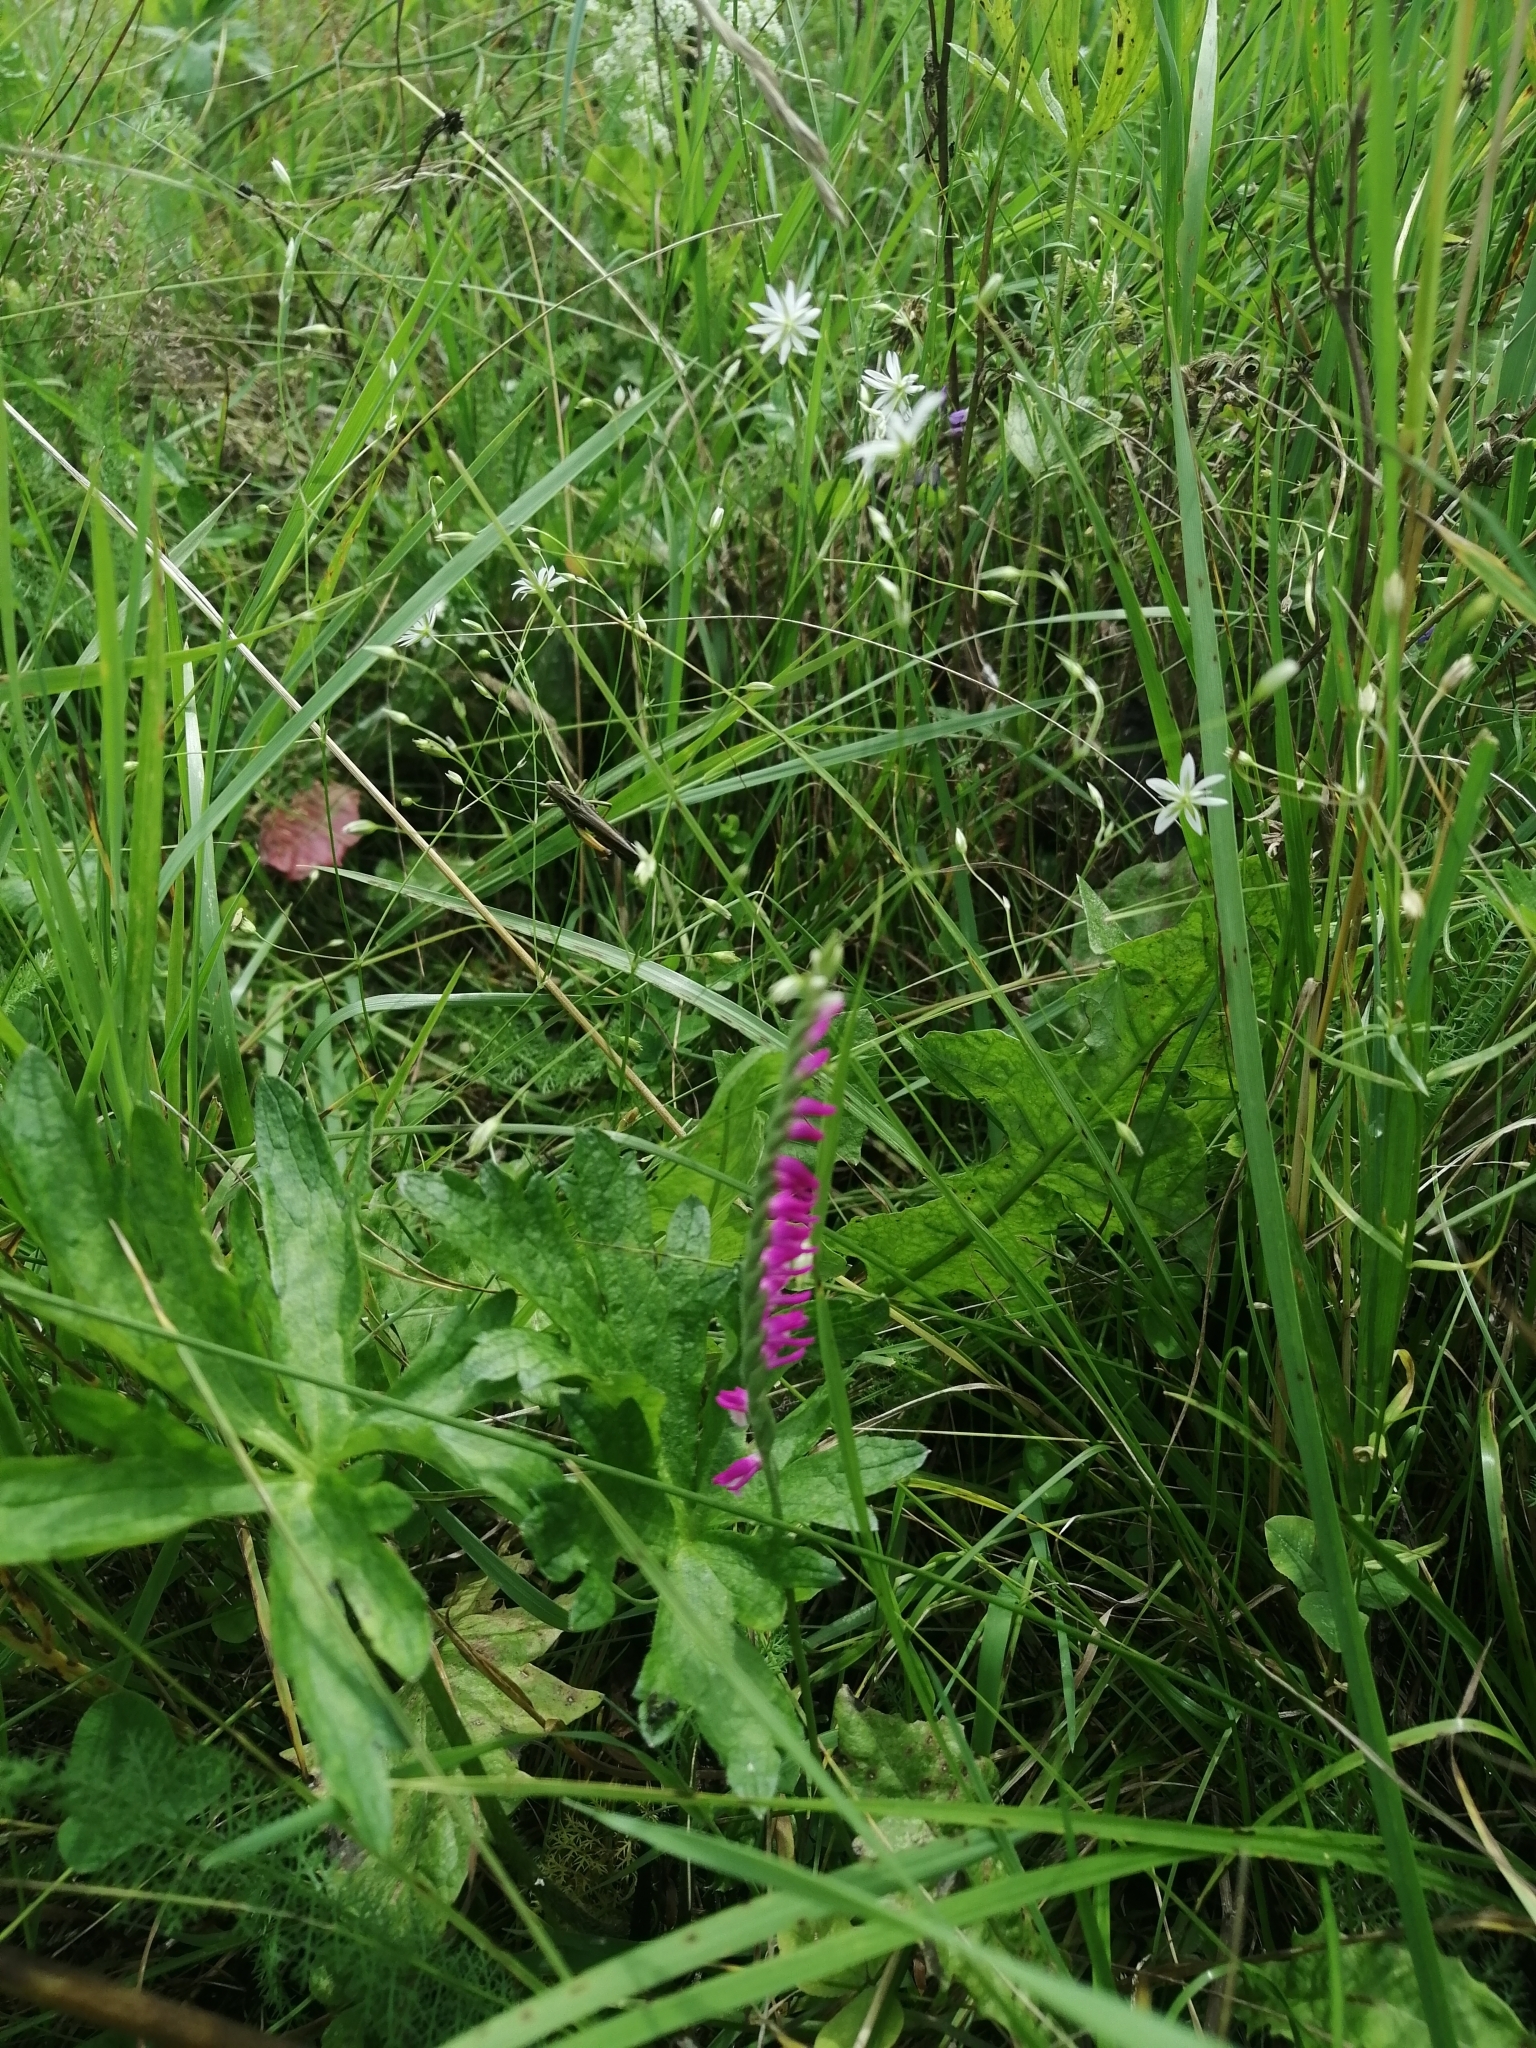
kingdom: Plantae
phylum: Tracheophyta
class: Liliopsida
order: Asparagales
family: Orchidaceae
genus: Spiranthes
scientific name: Spiranthes australis
